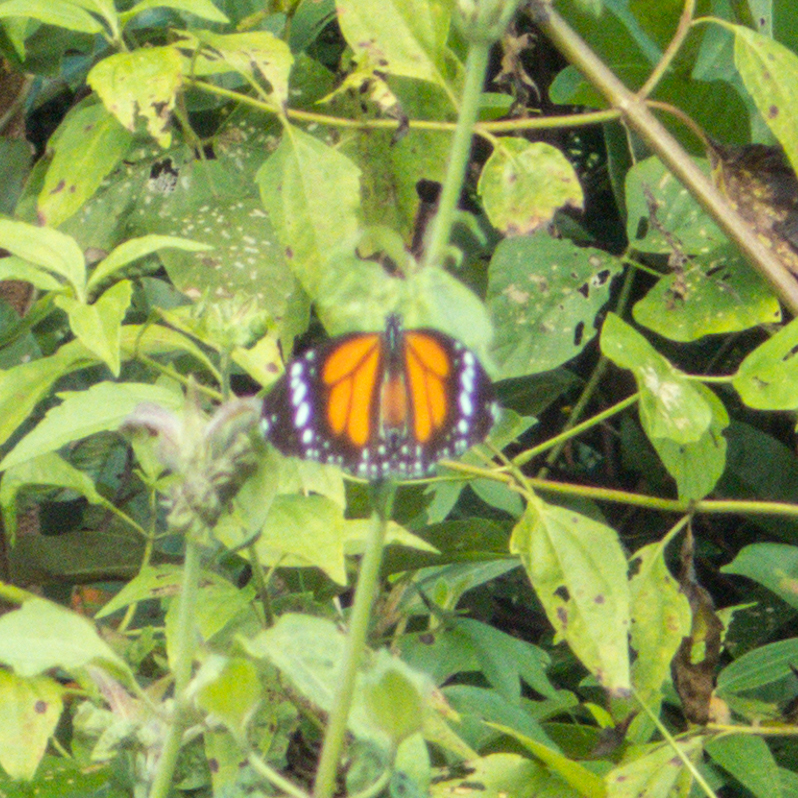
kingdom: Animalia
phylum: Arthropoda
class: Insecta
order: Lepidoptera
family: Nymphalidae
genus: Danaus
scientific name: Danaus melanippus
